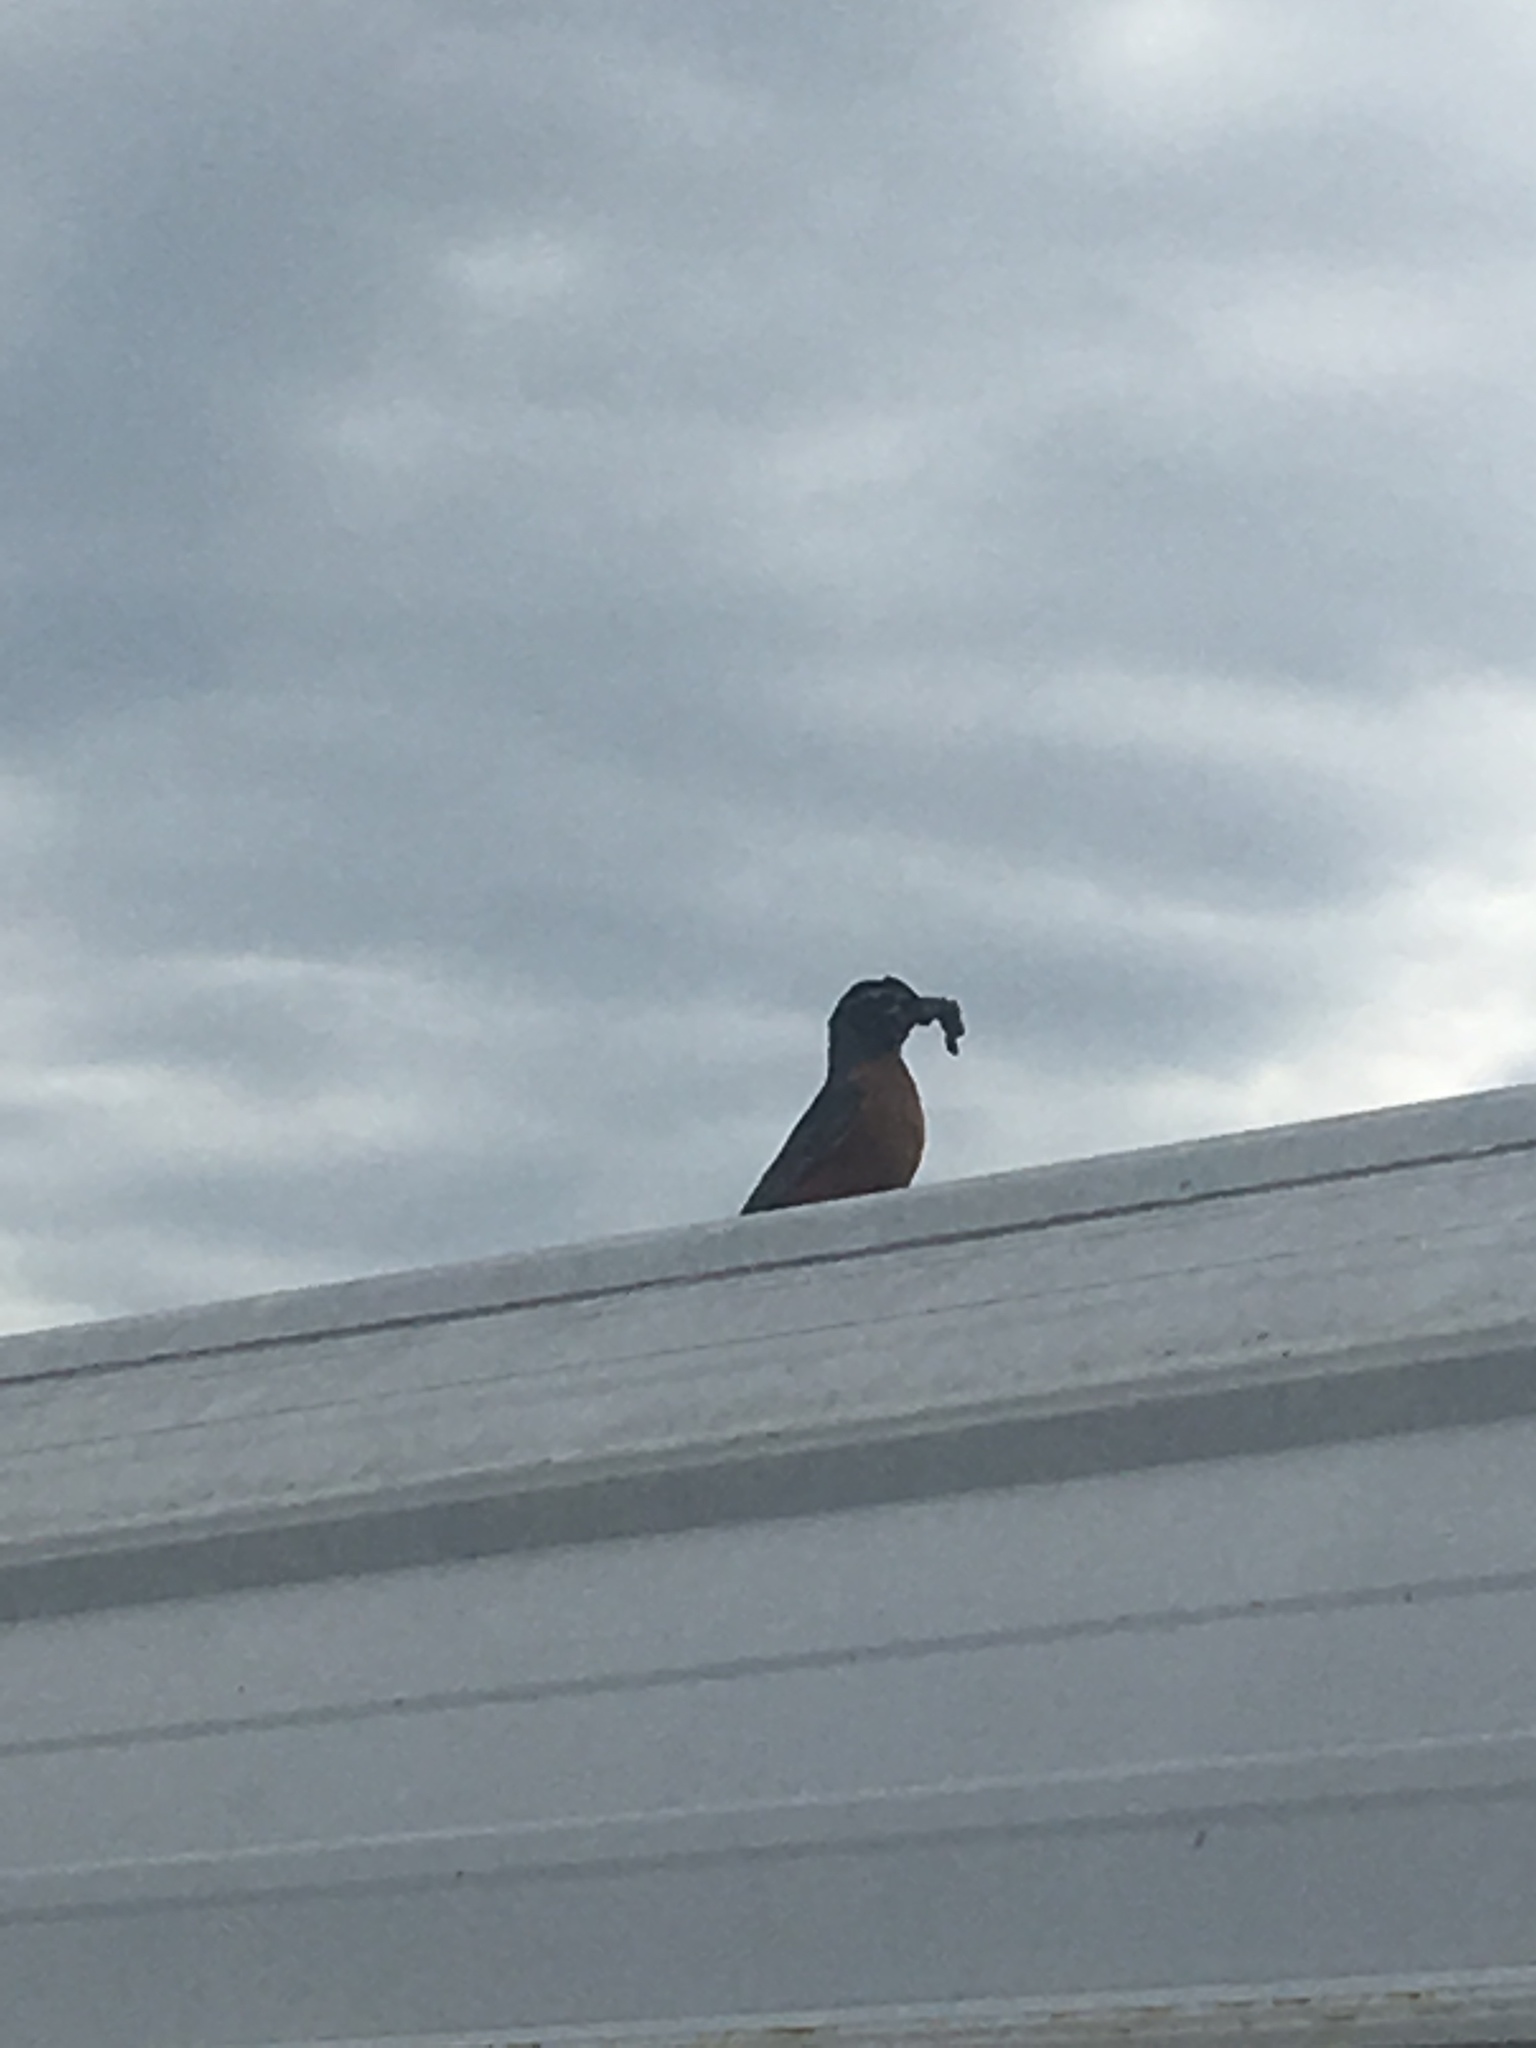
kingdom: Animalia
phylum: Chordata
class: Aves
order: Passeriformes
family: Turdidae
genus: Turdus
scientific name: Turdus migratorius
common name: American robin
